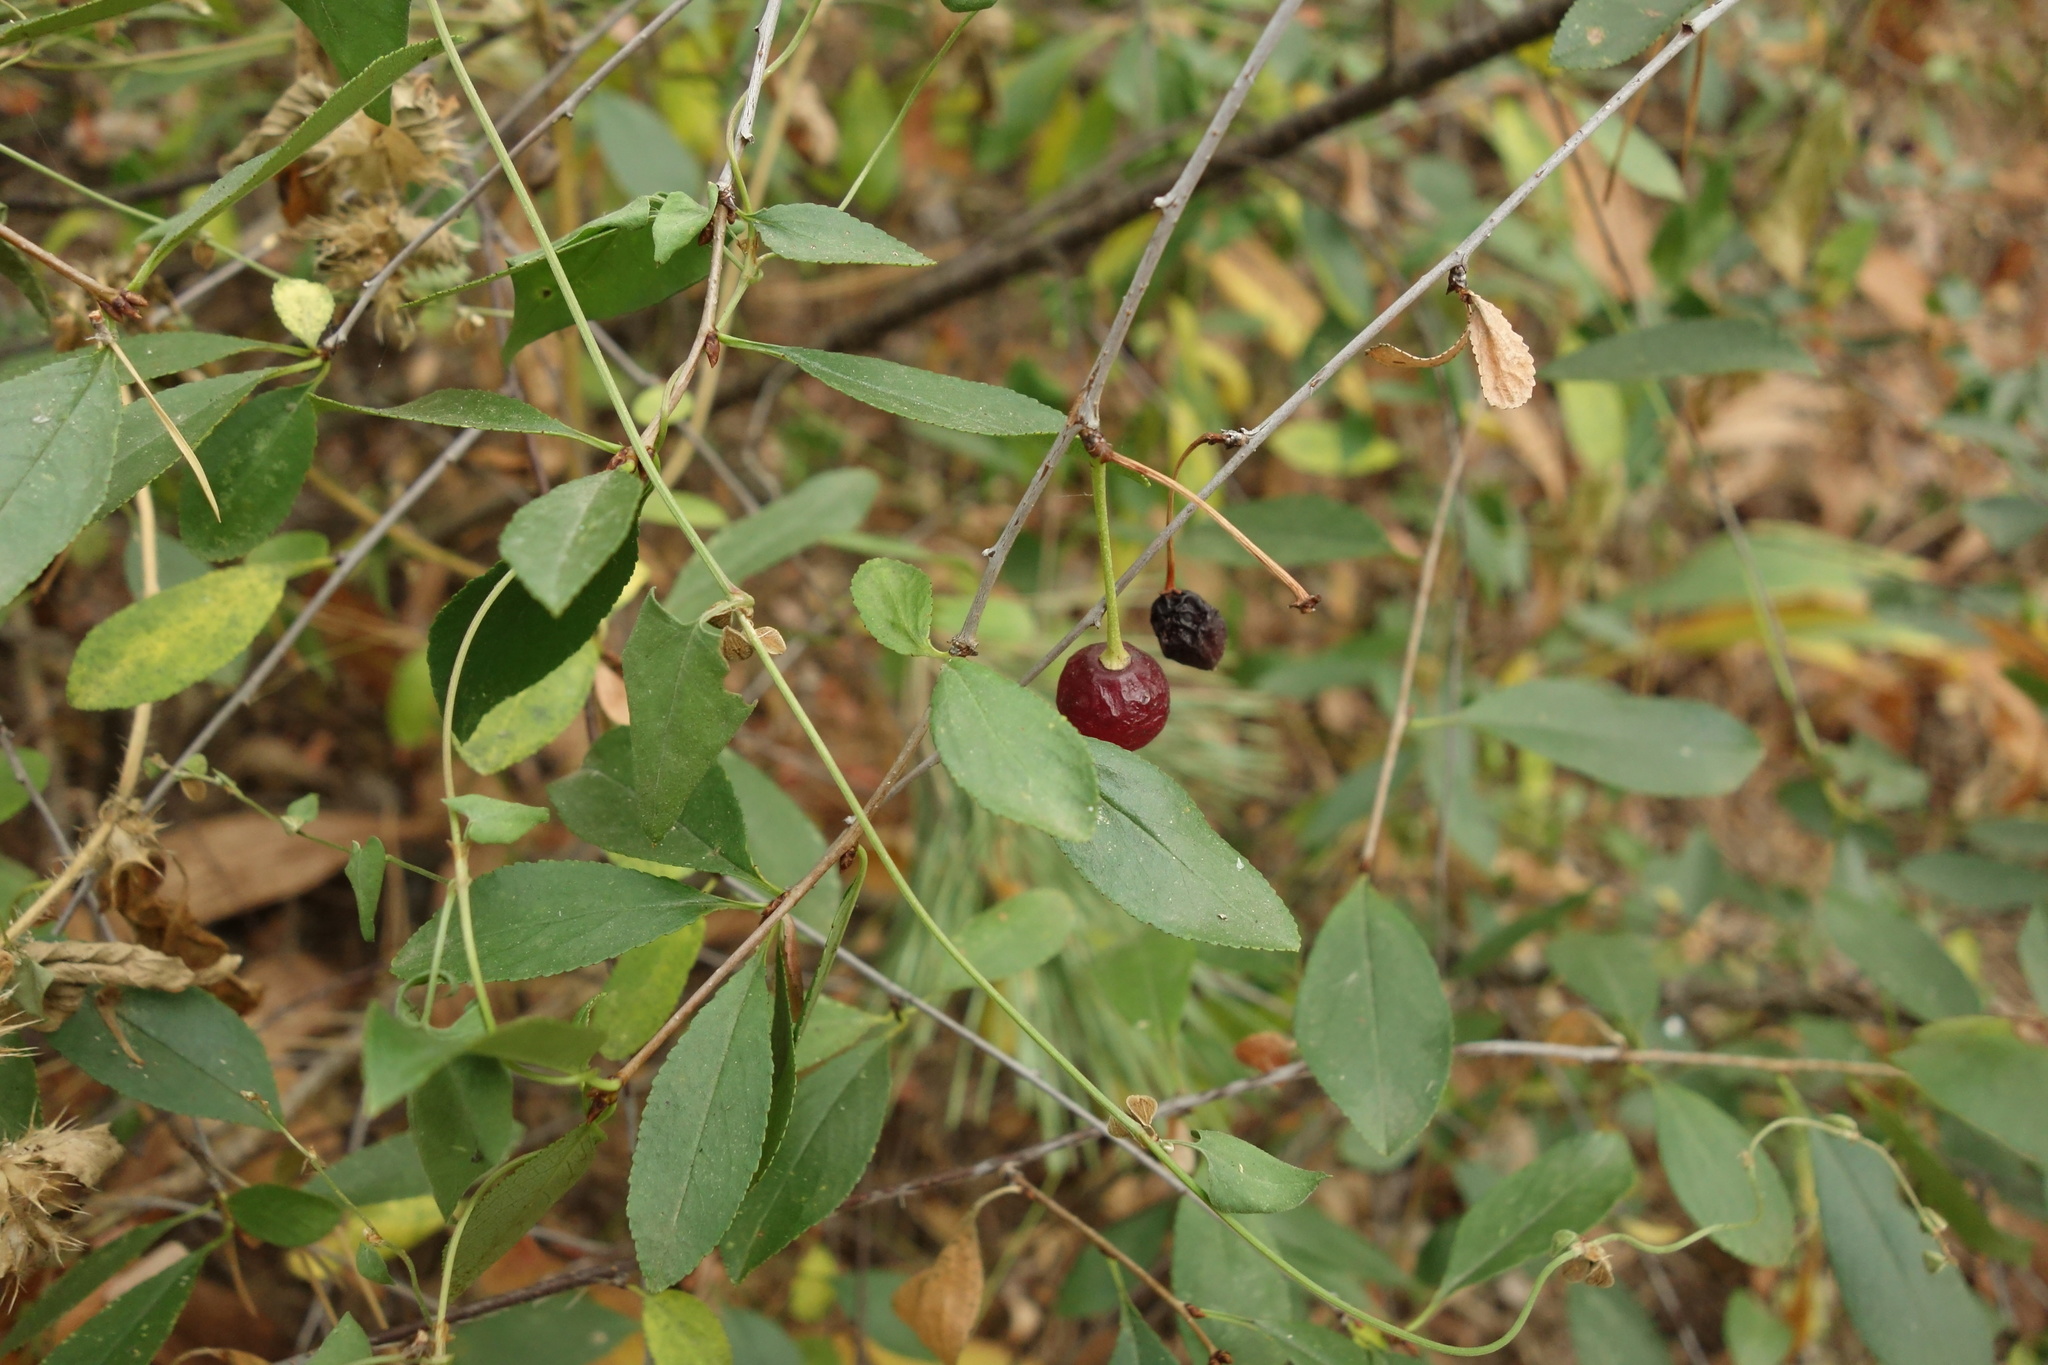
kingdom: Plantae
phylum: Tracheophyta
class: Magnoliopsida
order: Rosales
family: Rosaceae
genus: Prunus
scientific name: Prunus fruticosa
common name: European dwarf cherry
